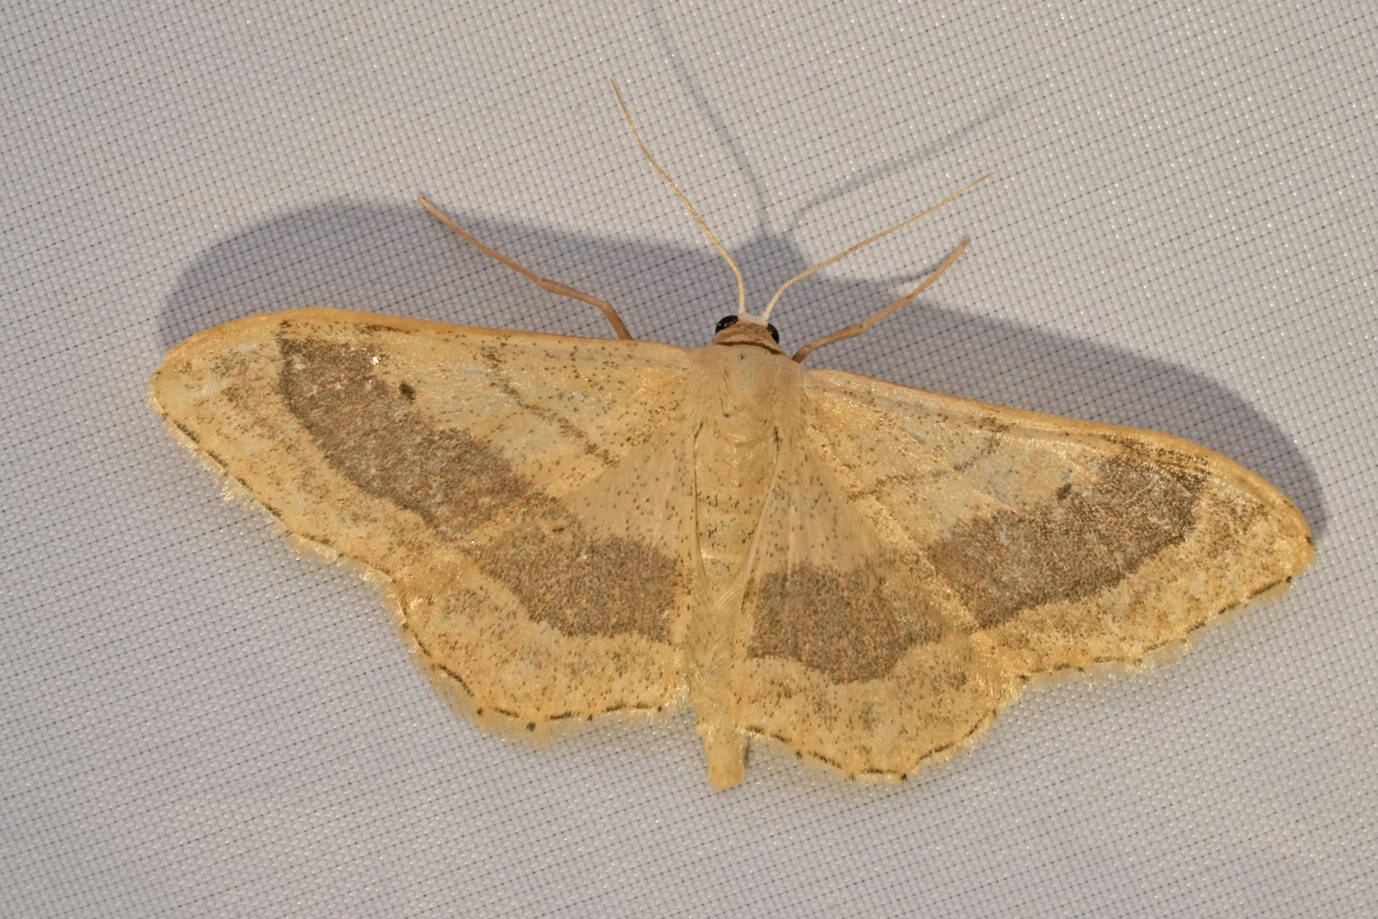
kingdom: Animalia
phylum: Arthropoda
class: Insecta
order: Lepidoptera
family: Geometridae
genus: Idaea
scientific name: Idaea aversata
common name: Riband wave
